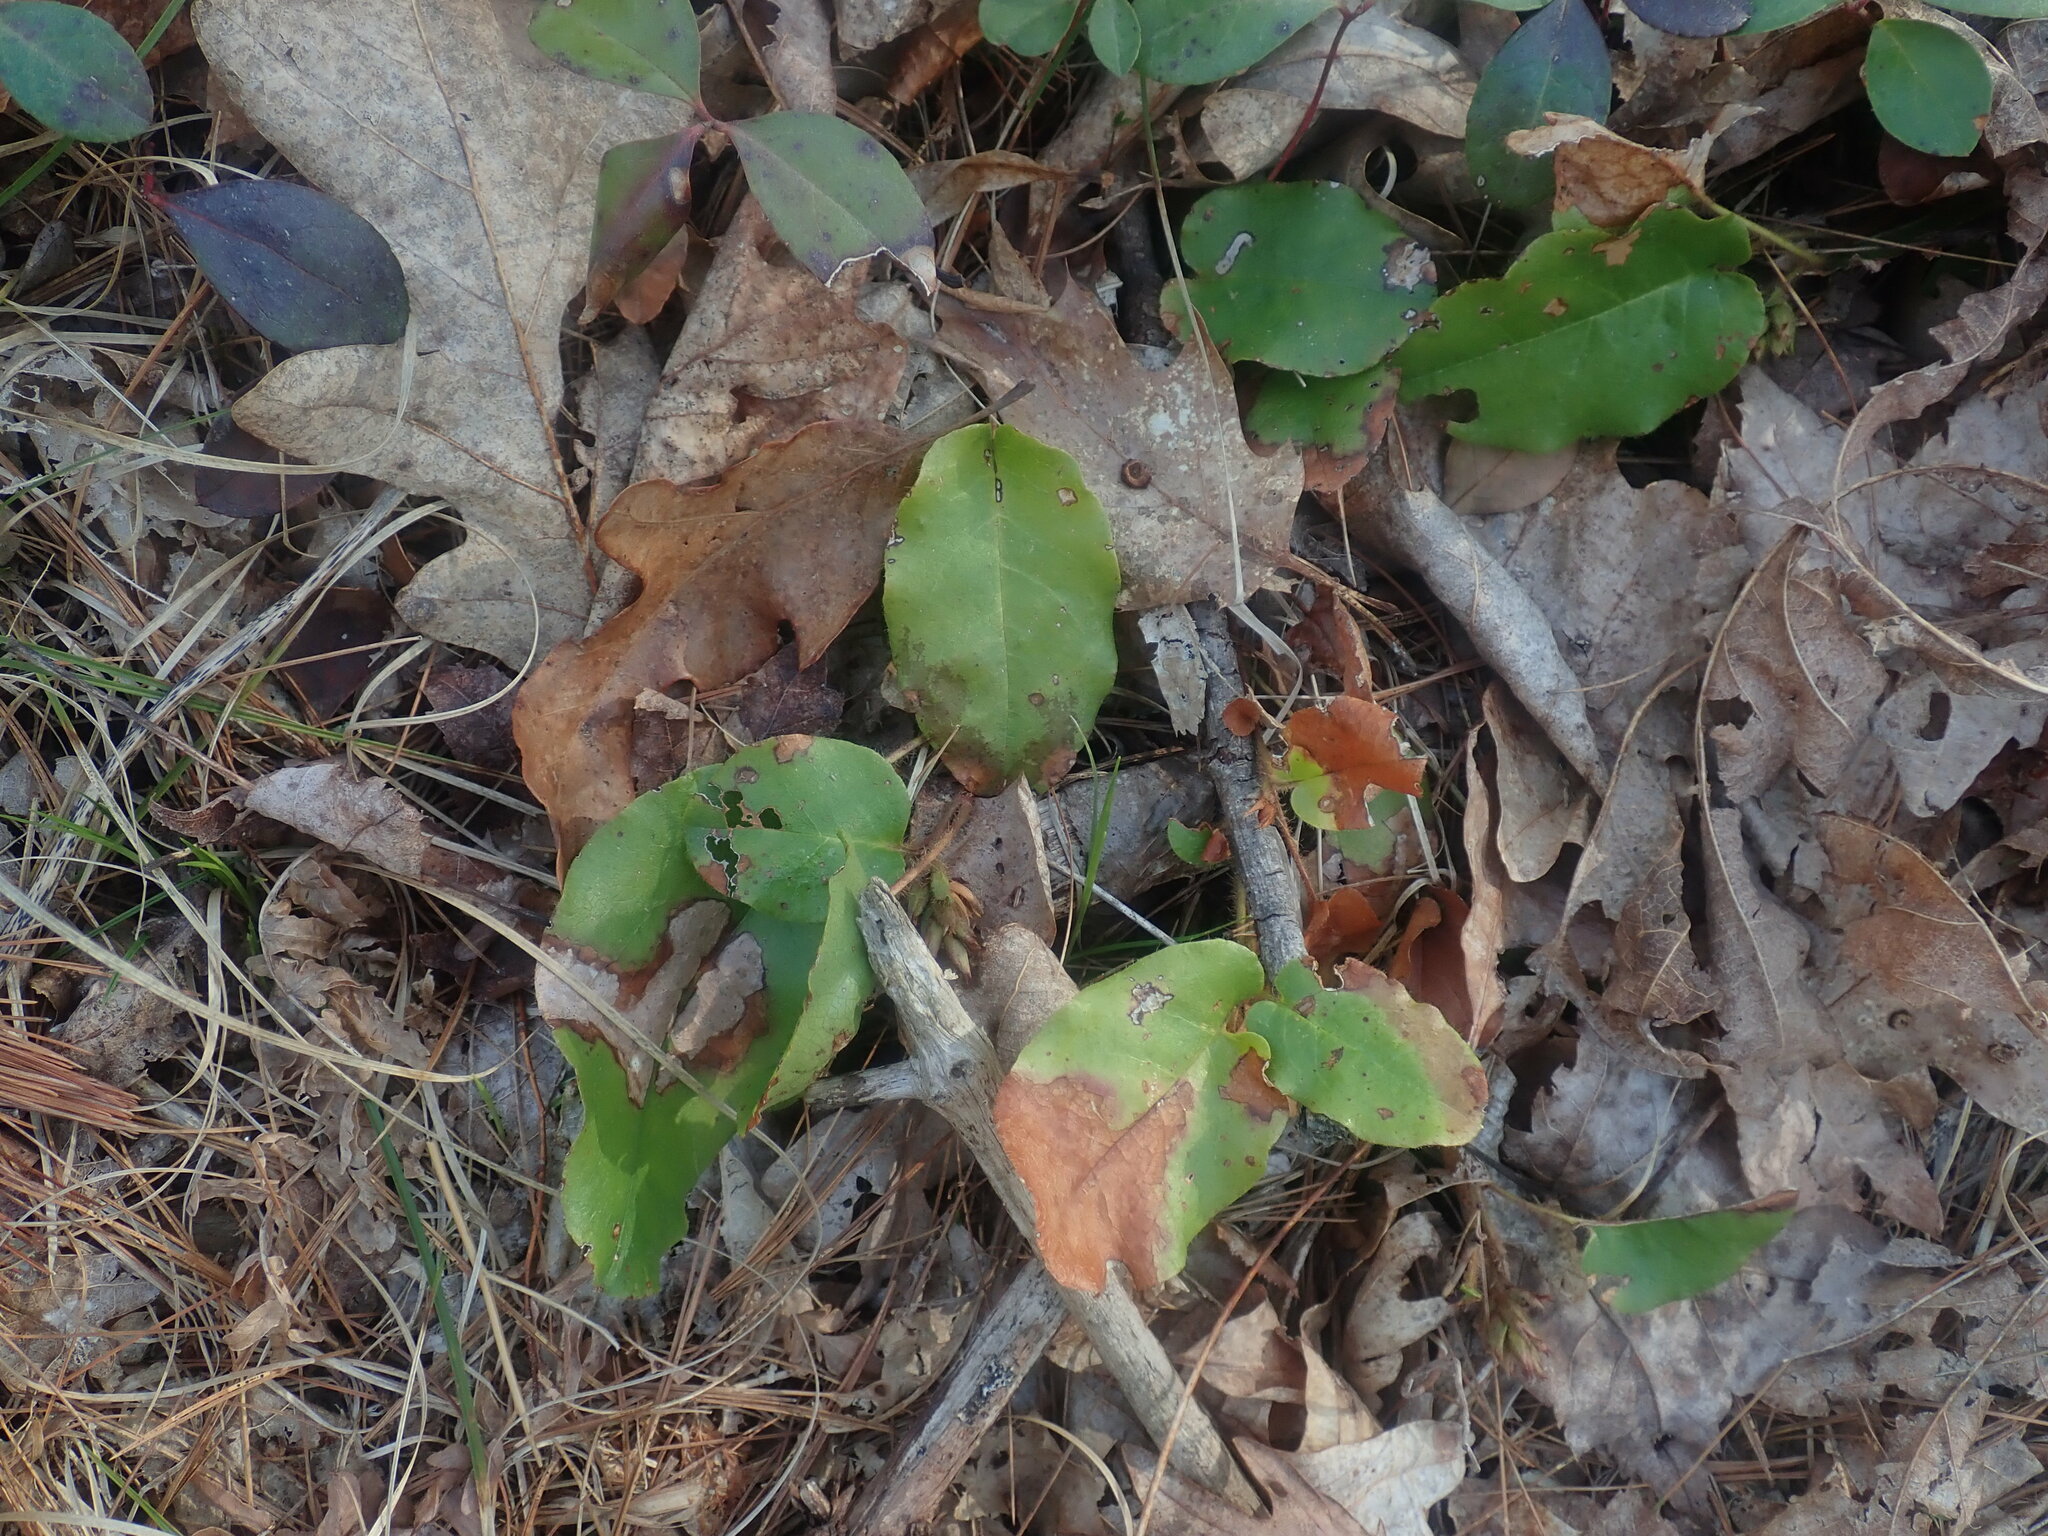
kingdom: Plantae
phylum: Tracheophyta
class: Magnoliopsida
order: Ericales
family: Ericaceae
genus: Epigaea
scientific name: Epigaea repens
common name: Gravelroot
